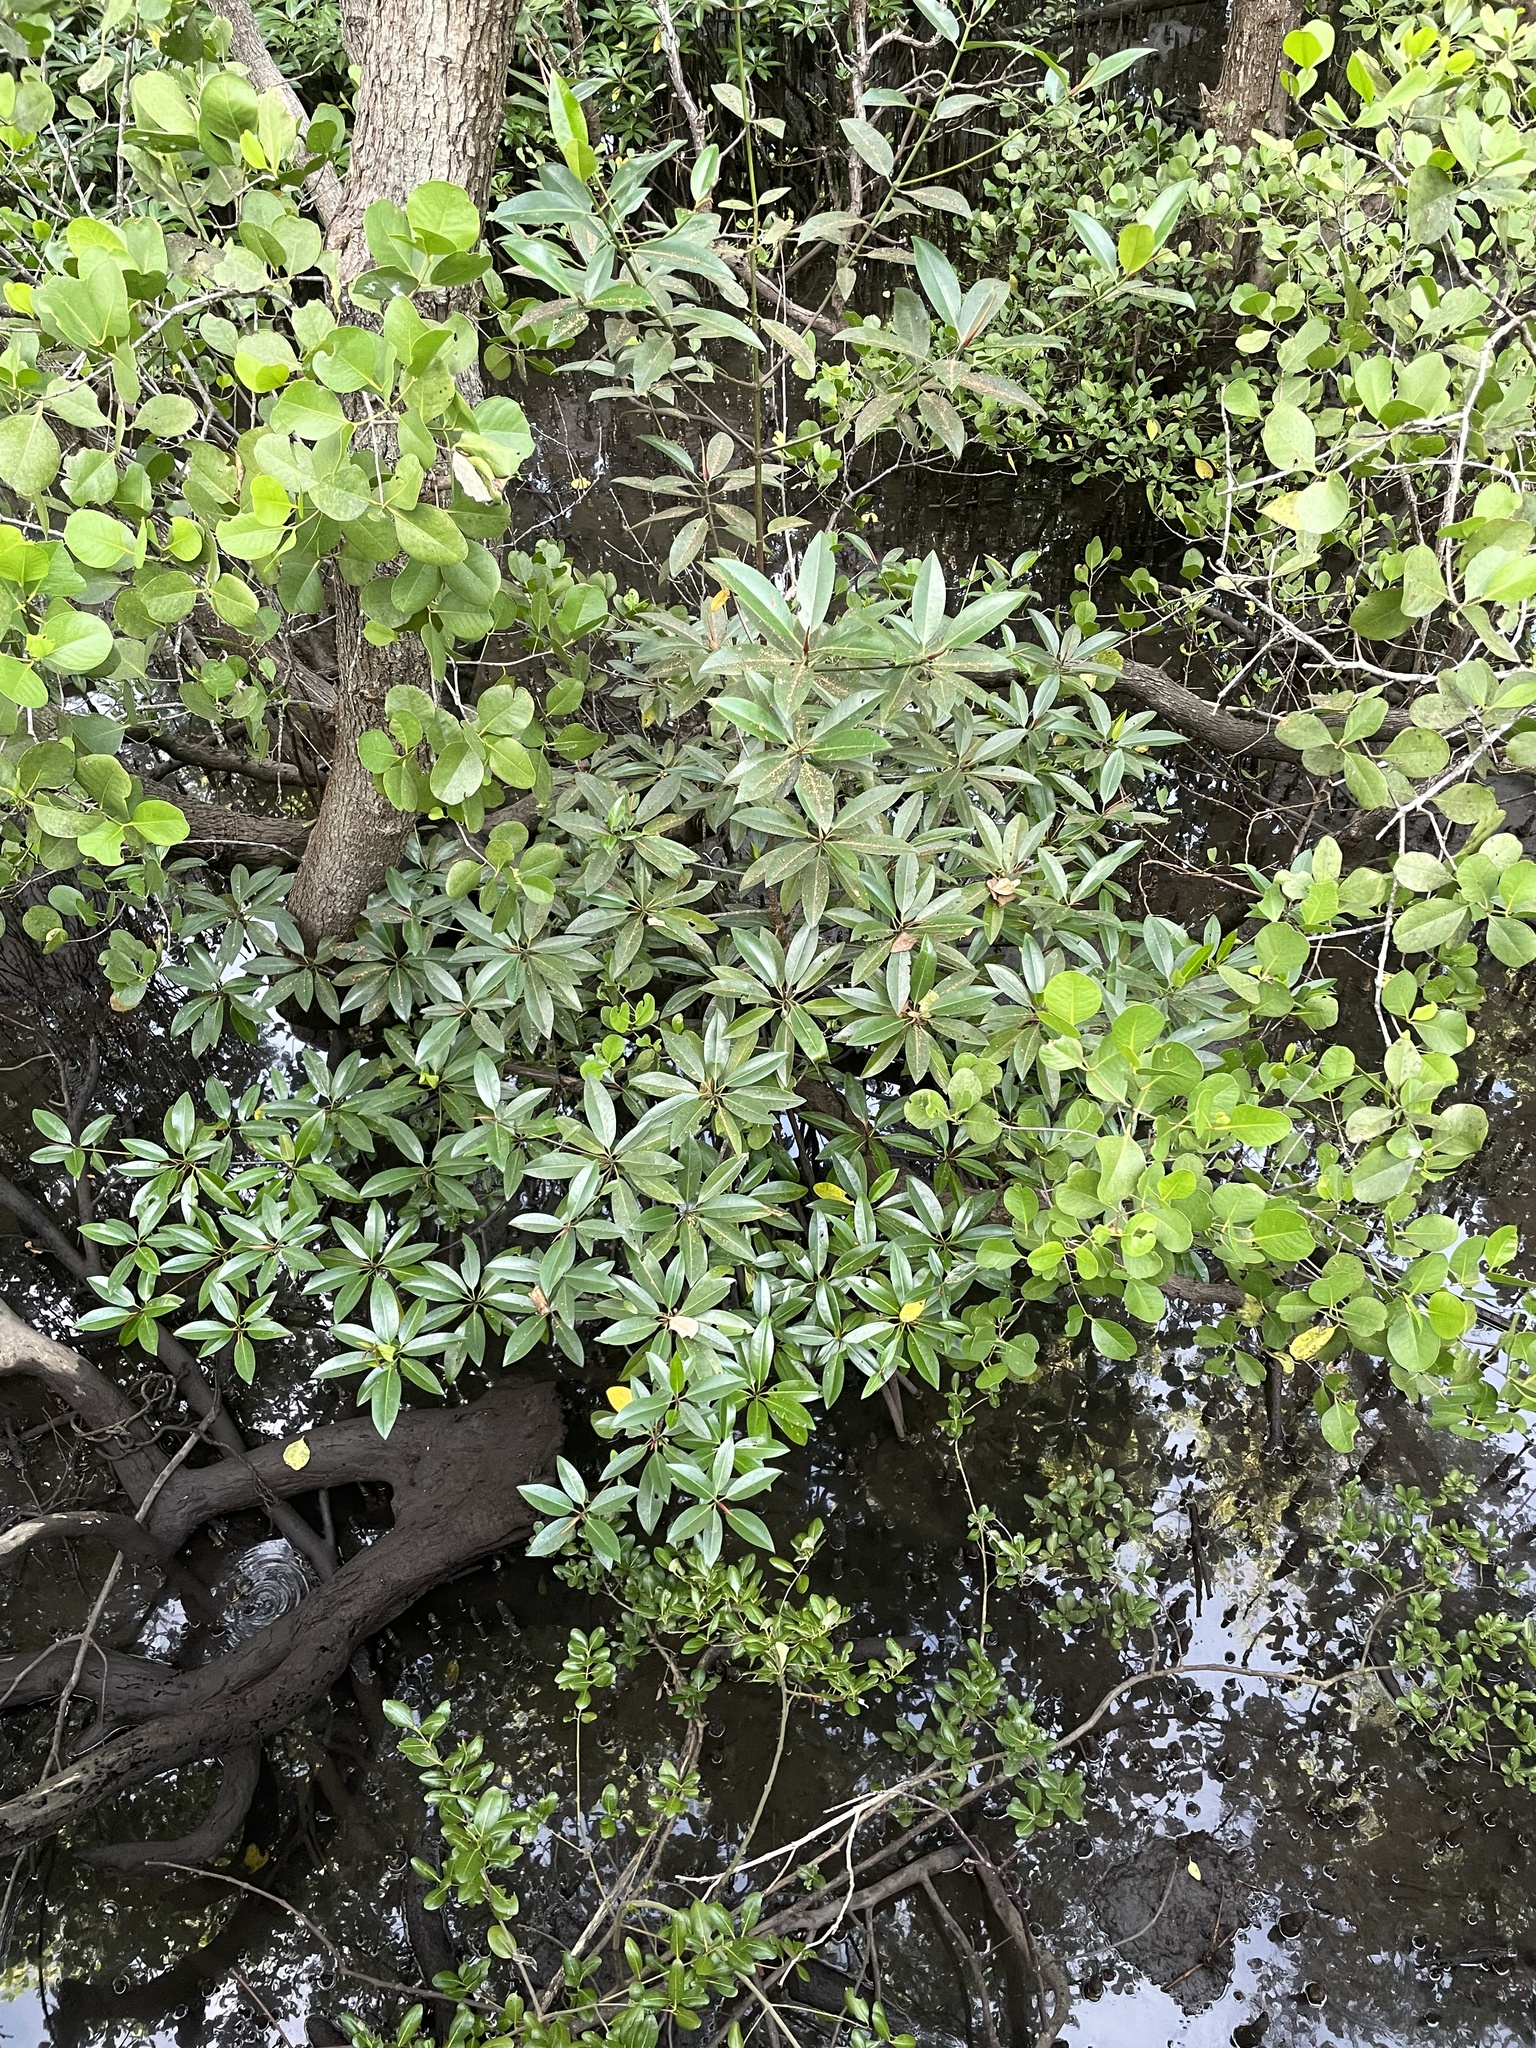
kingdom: Plantae
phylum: Tracheophyta
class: Magnoliopsida
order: Malpighiales
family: Rhizophoraceae
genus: Rhizophora
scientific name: Rhizophora apiculata
